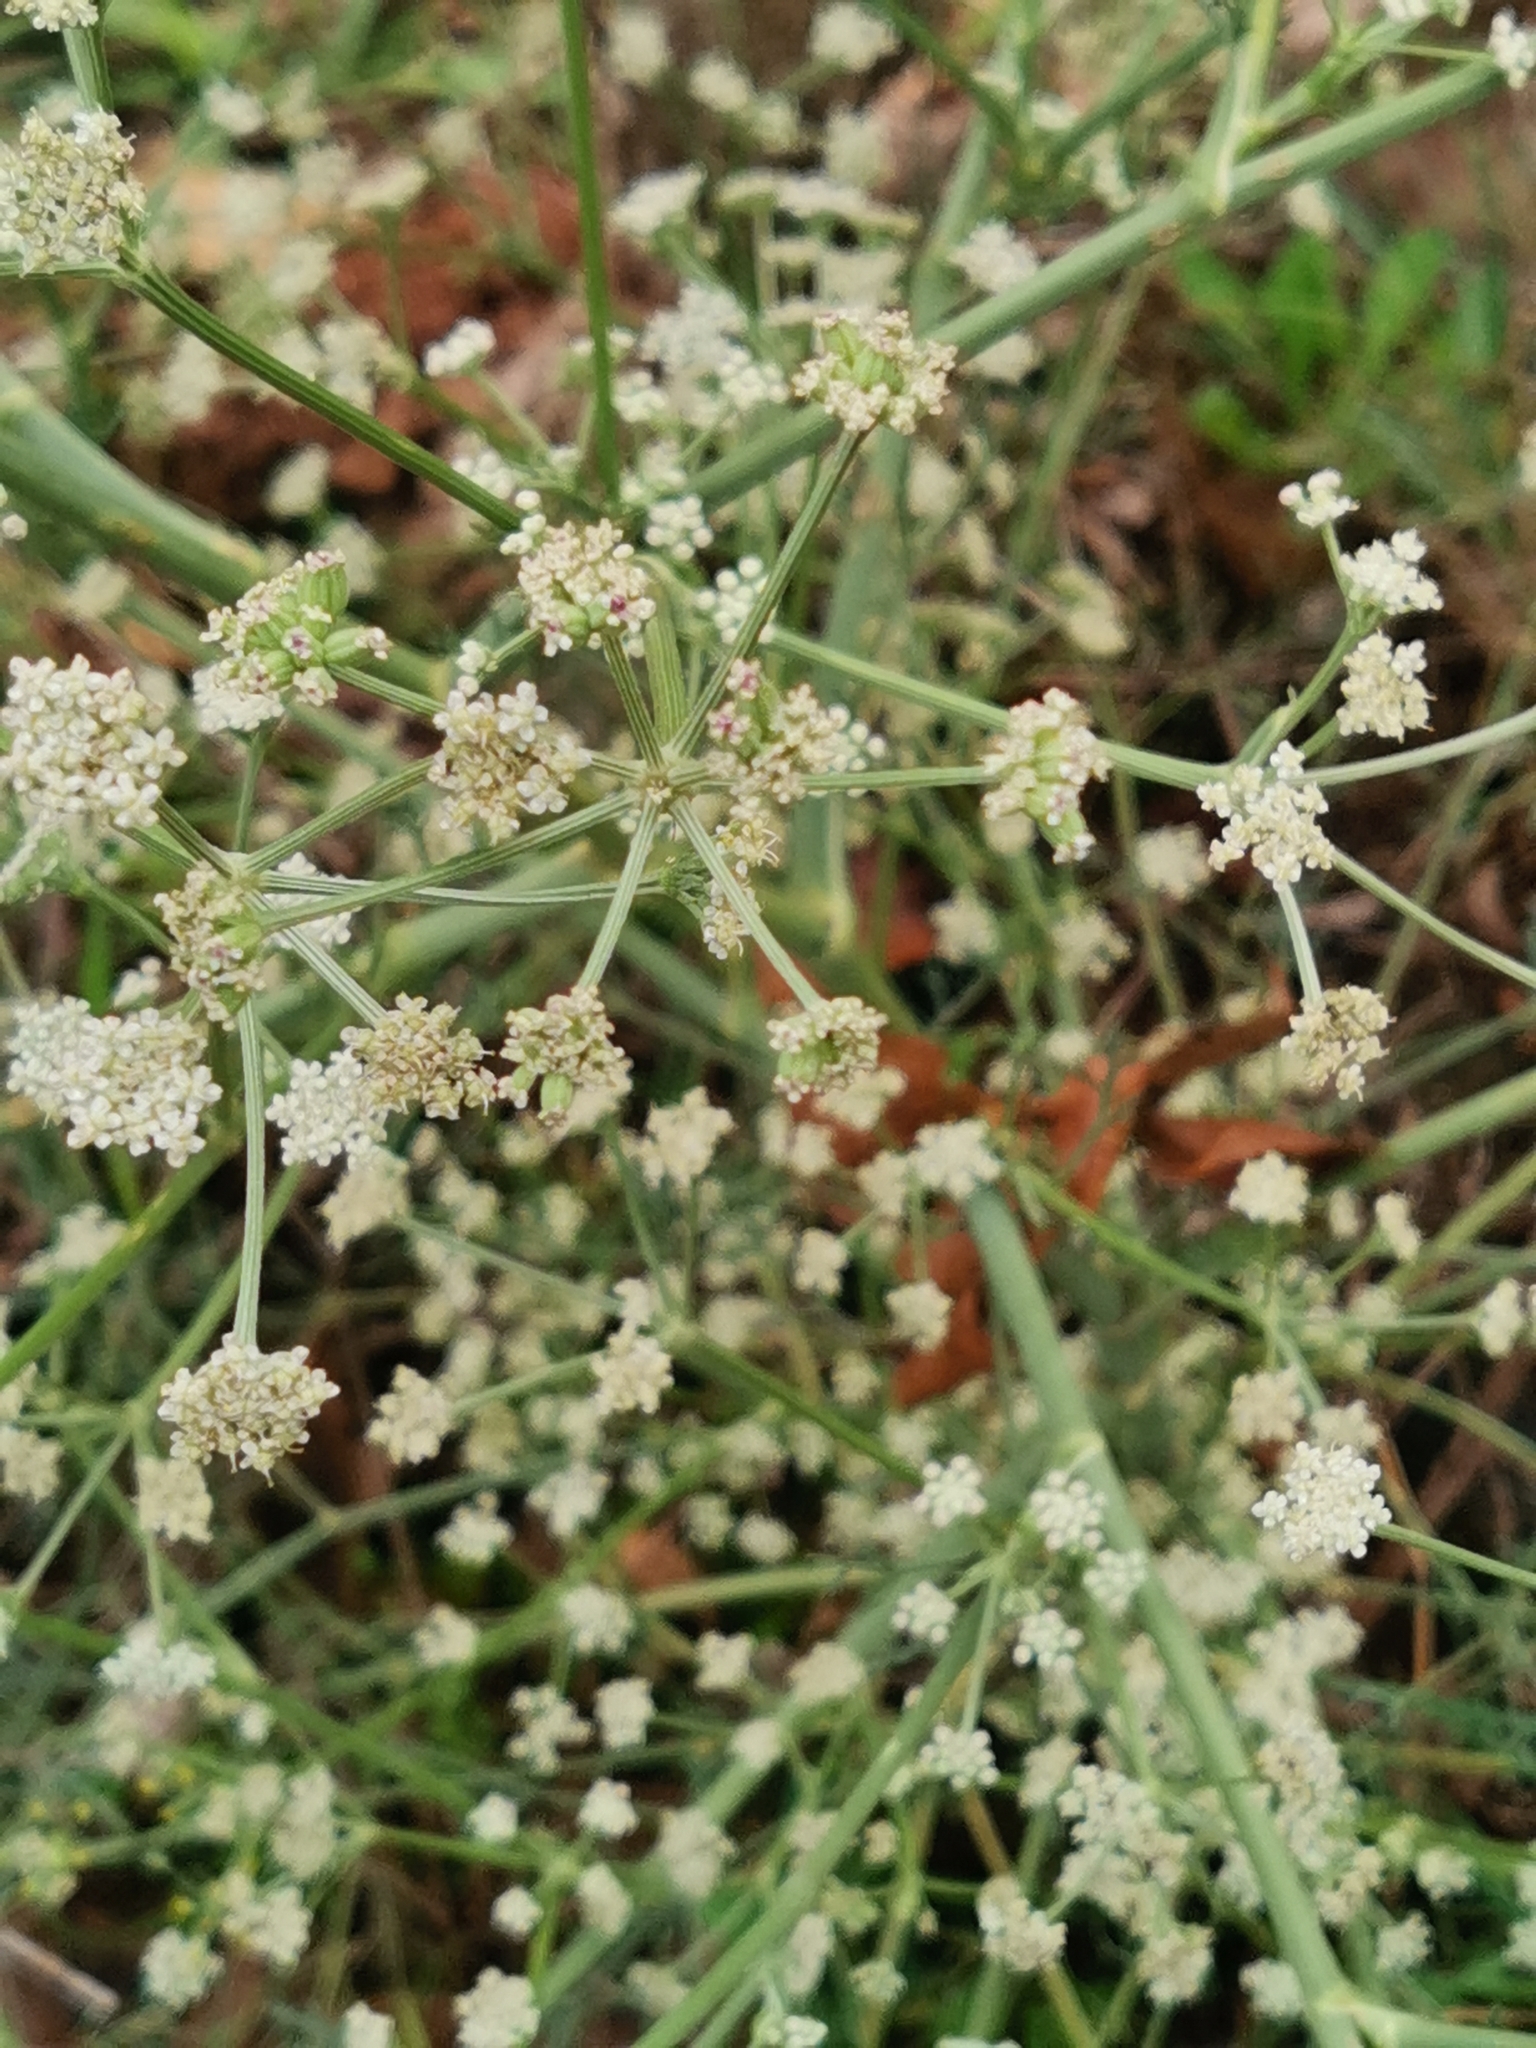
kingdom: Plantae
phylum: Tracheophyta
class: Magnoliopsida
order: Apiales
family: Apiaceae
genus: Seseli
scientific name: Seseli tortuosum
